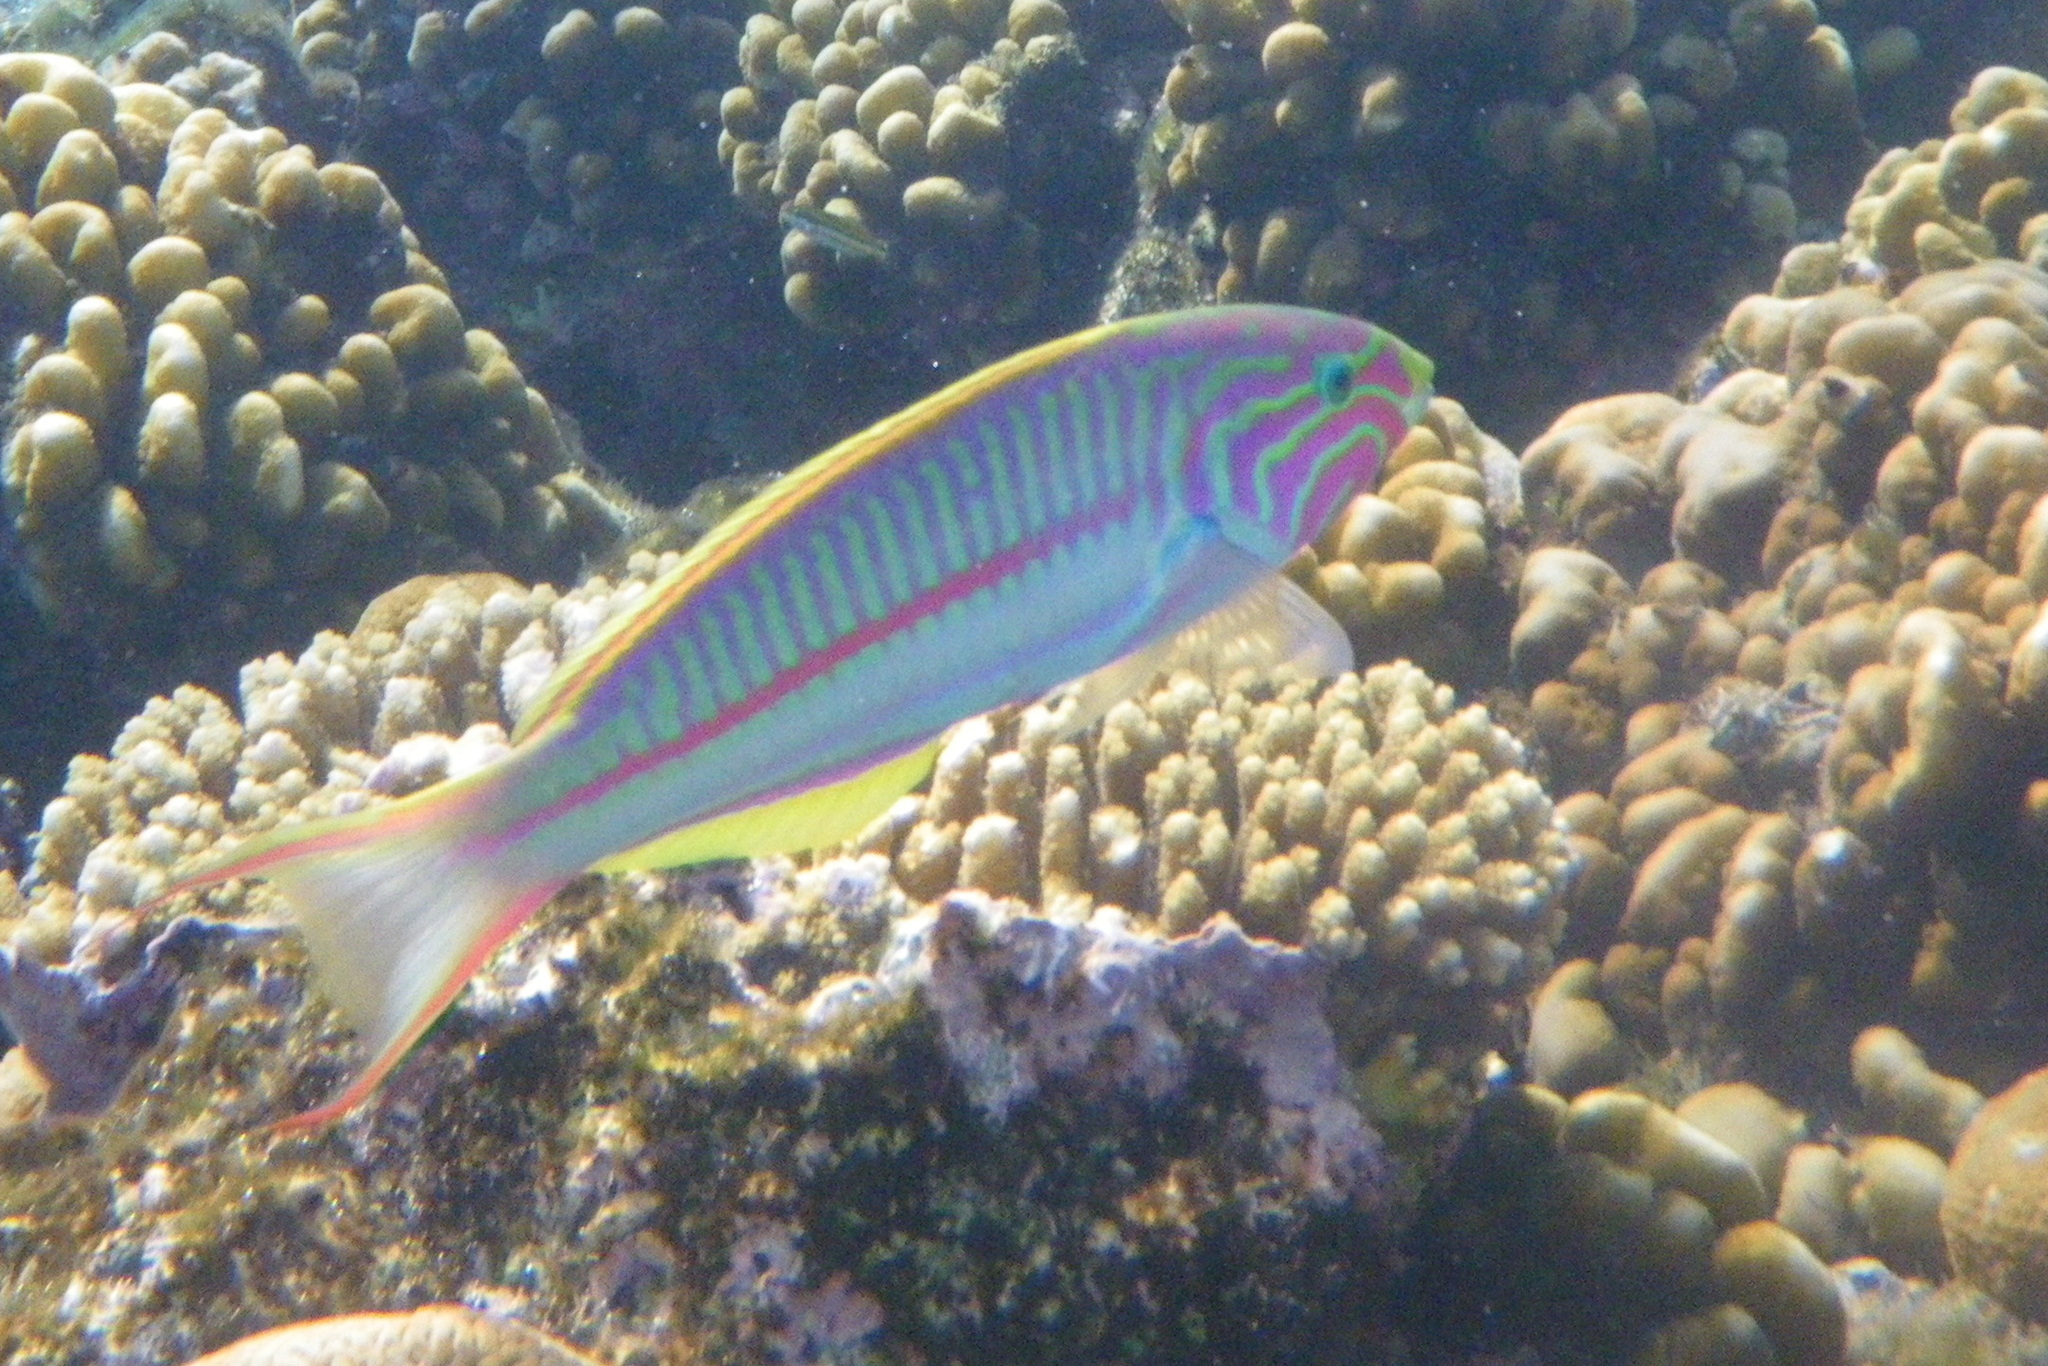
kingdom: Animalia
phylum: Chordata
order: Perciformes
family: Labridae
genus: Thalassoma
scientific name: Thalassoma rueppellii
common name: Klunzinger's wrasse
